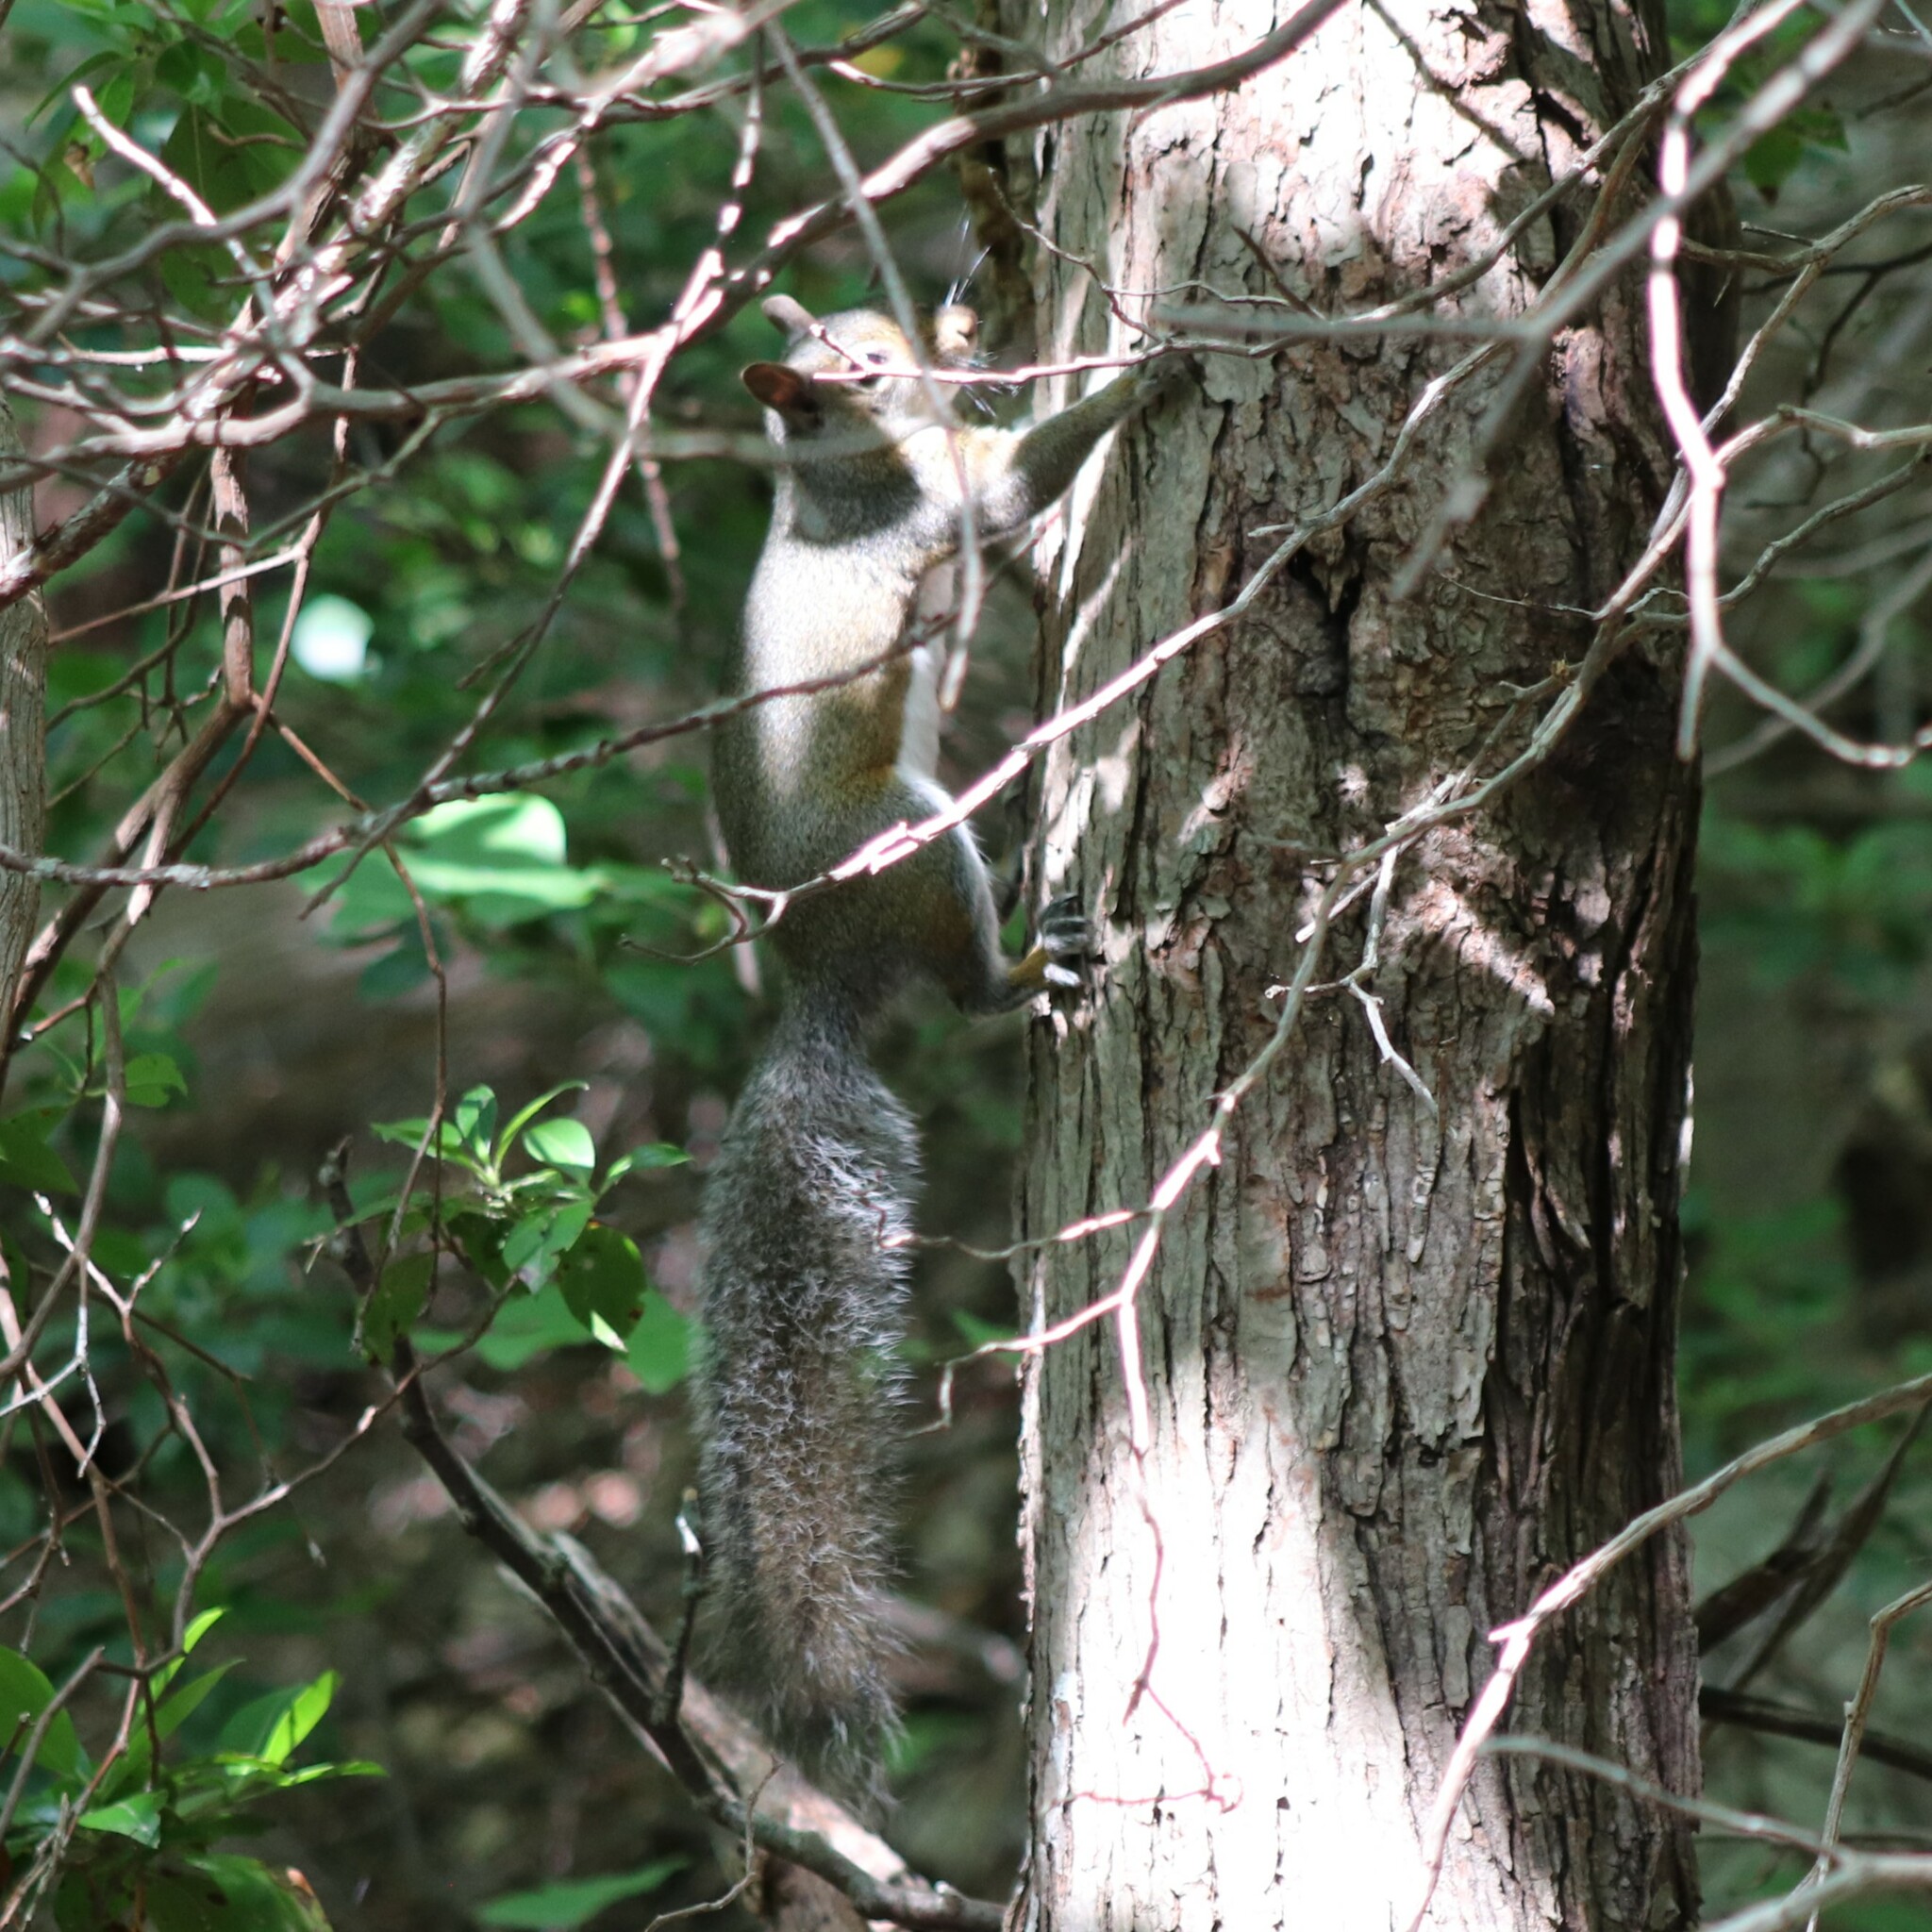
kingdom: Animalia
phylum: Chordata
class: Mammalia
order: Rodentia
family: Sciuridae
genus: Sciurus
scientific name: Sciurus carolinensis
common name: Eastern gray squirrel
